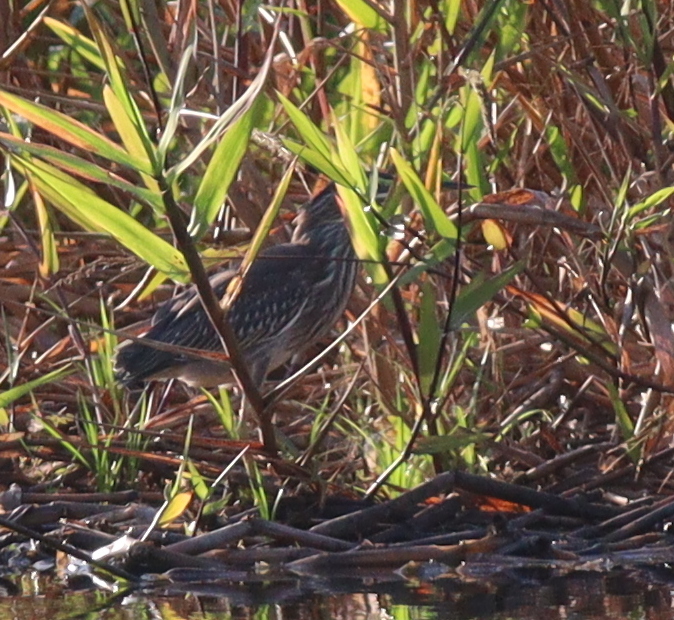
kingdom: Animalia
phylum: Chordata
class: Aves
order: Pelecaniformes
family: Ardeidae
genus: Butorides
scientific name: Butorides striata
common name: Striated heron
